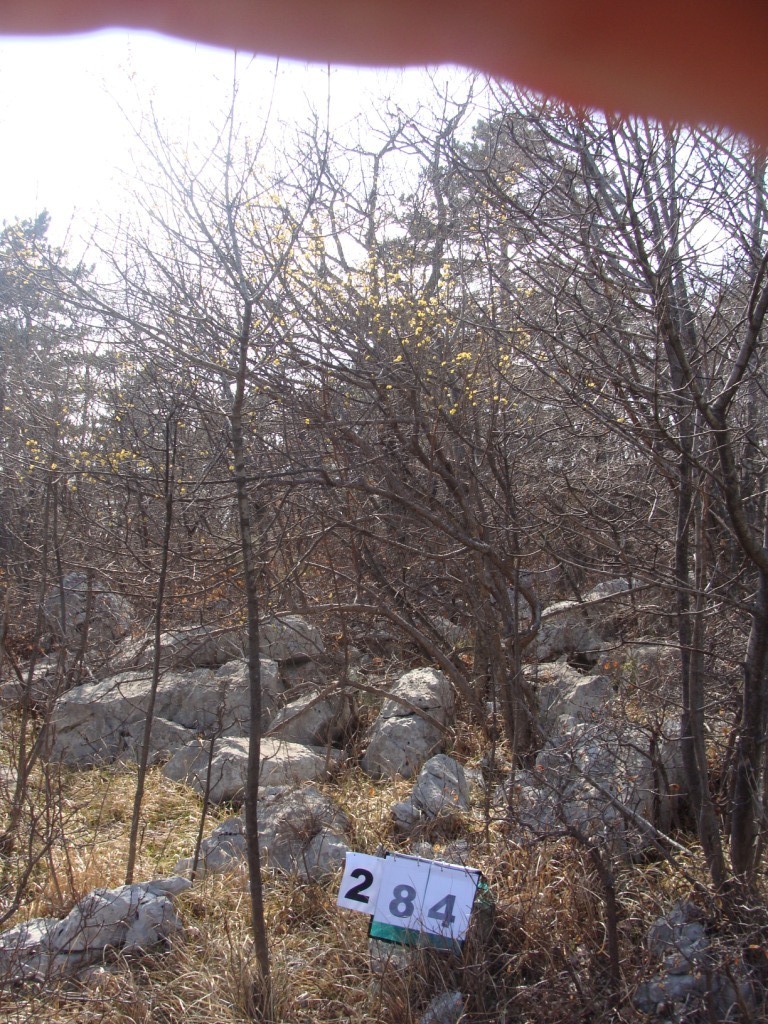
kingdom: Plantae
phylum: Tracheophyta
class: Magnoliopsida
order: Cornales
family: Cornaceae
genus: Cornus
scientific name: Cornus mas
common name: Cornelian-cherry
